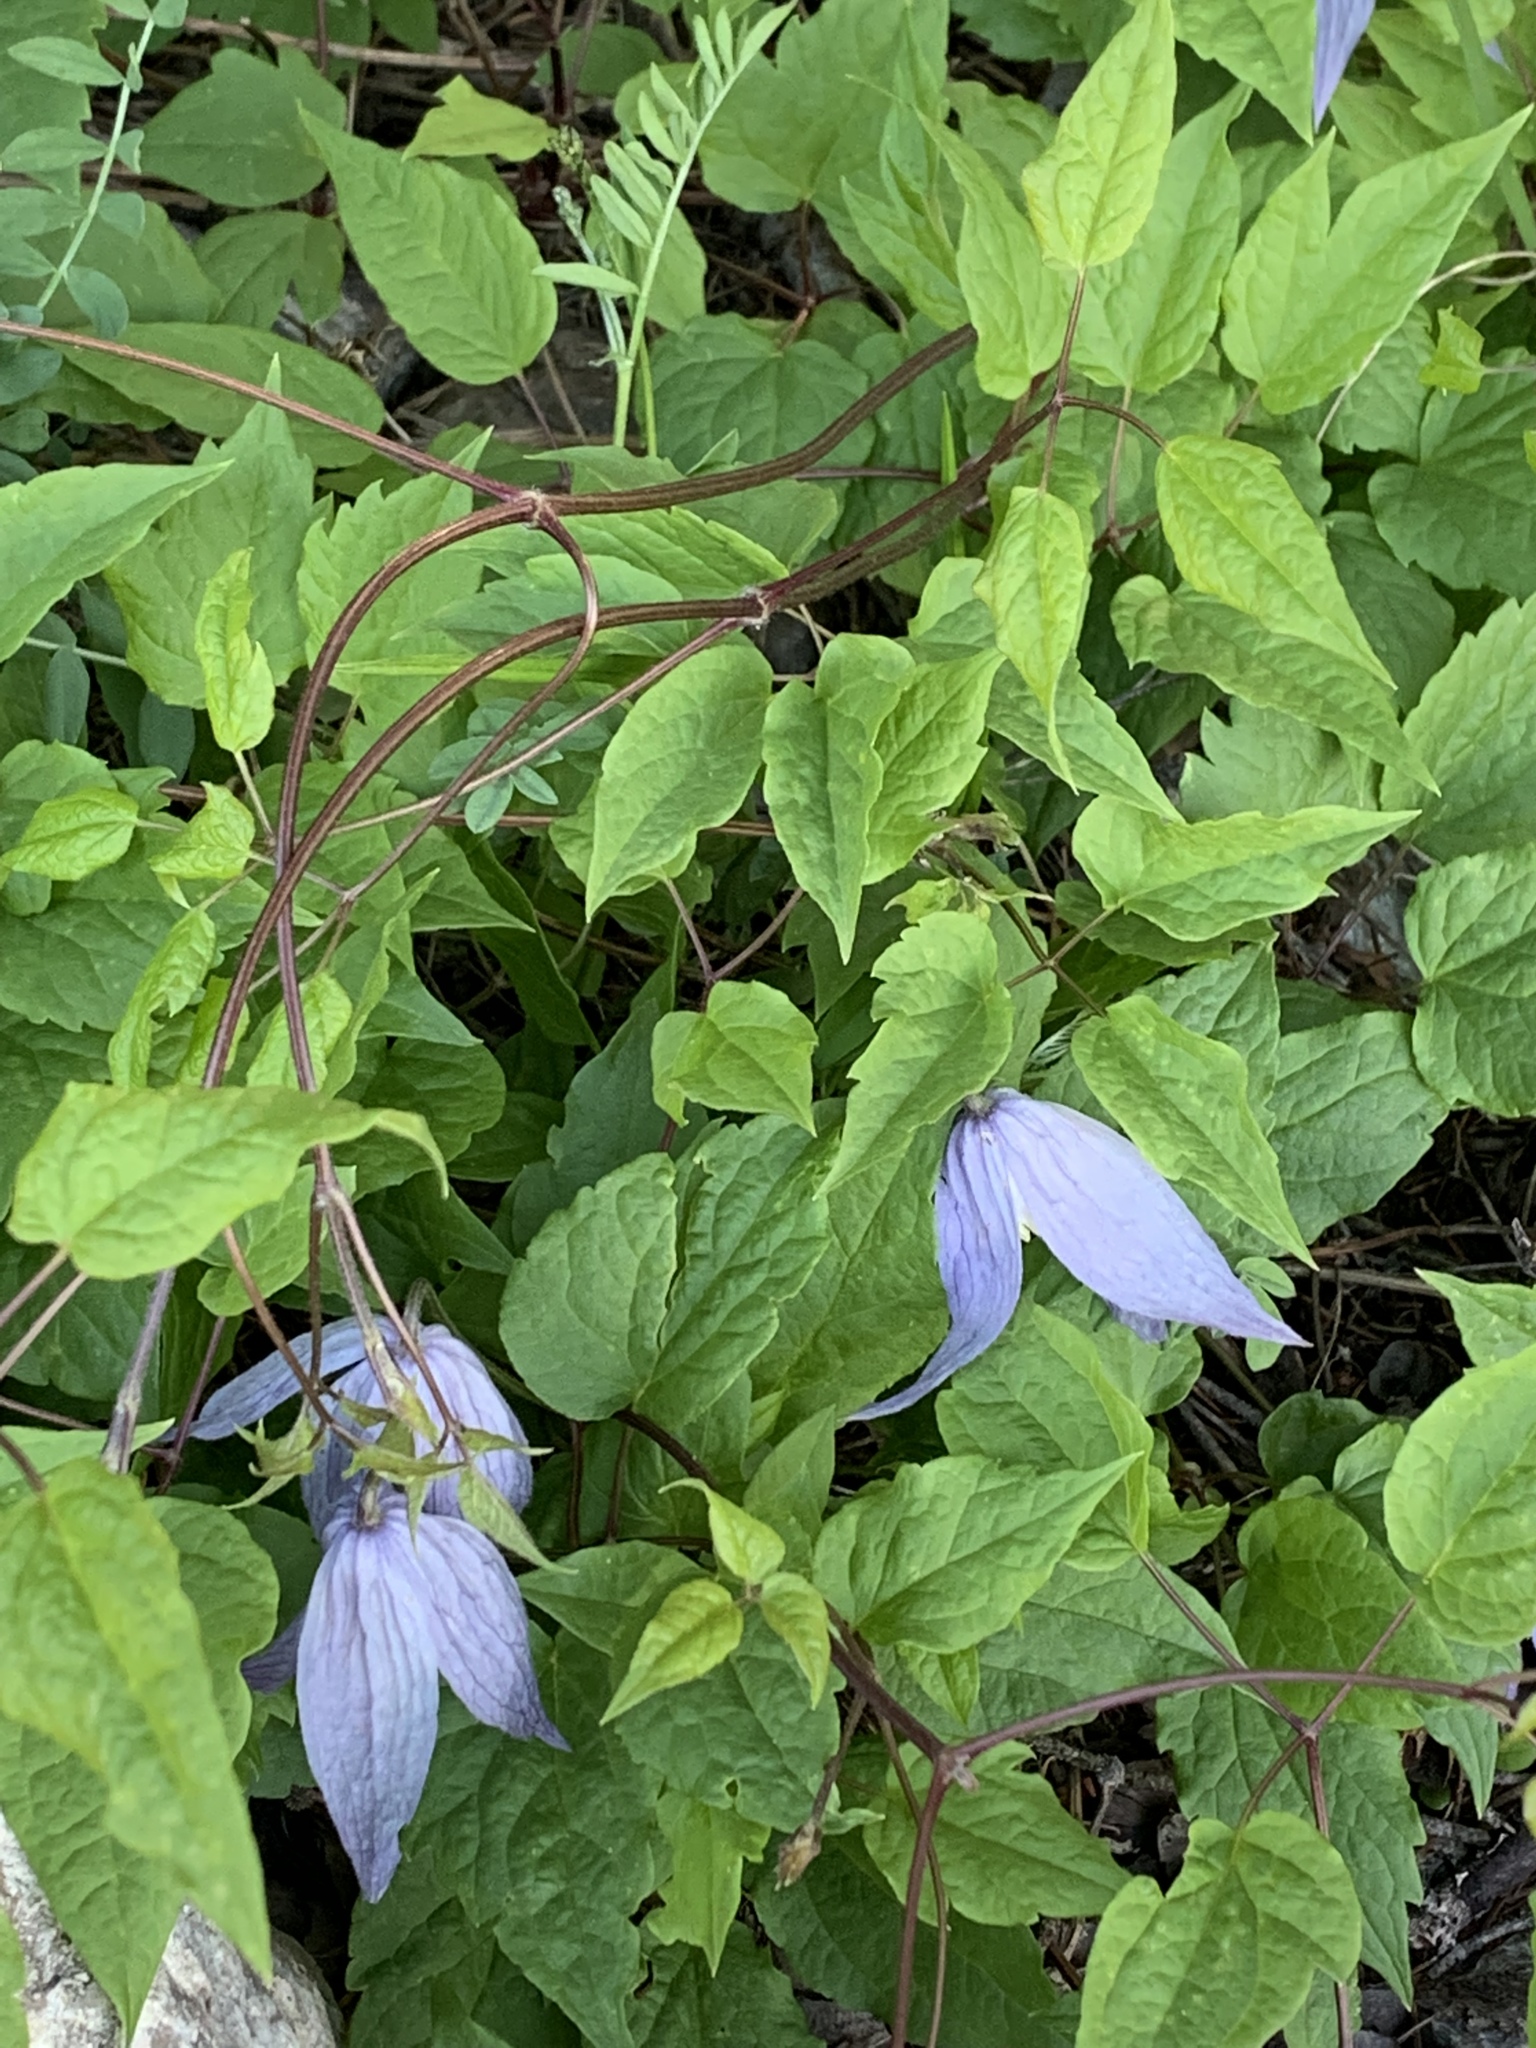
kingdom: Plantae
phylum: Tracheophyta
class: Magnoliopsida
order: Ranunculales
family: Ranunculaceae
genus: Clematis
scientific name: Clematis occidentalis
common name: Purple clematis
